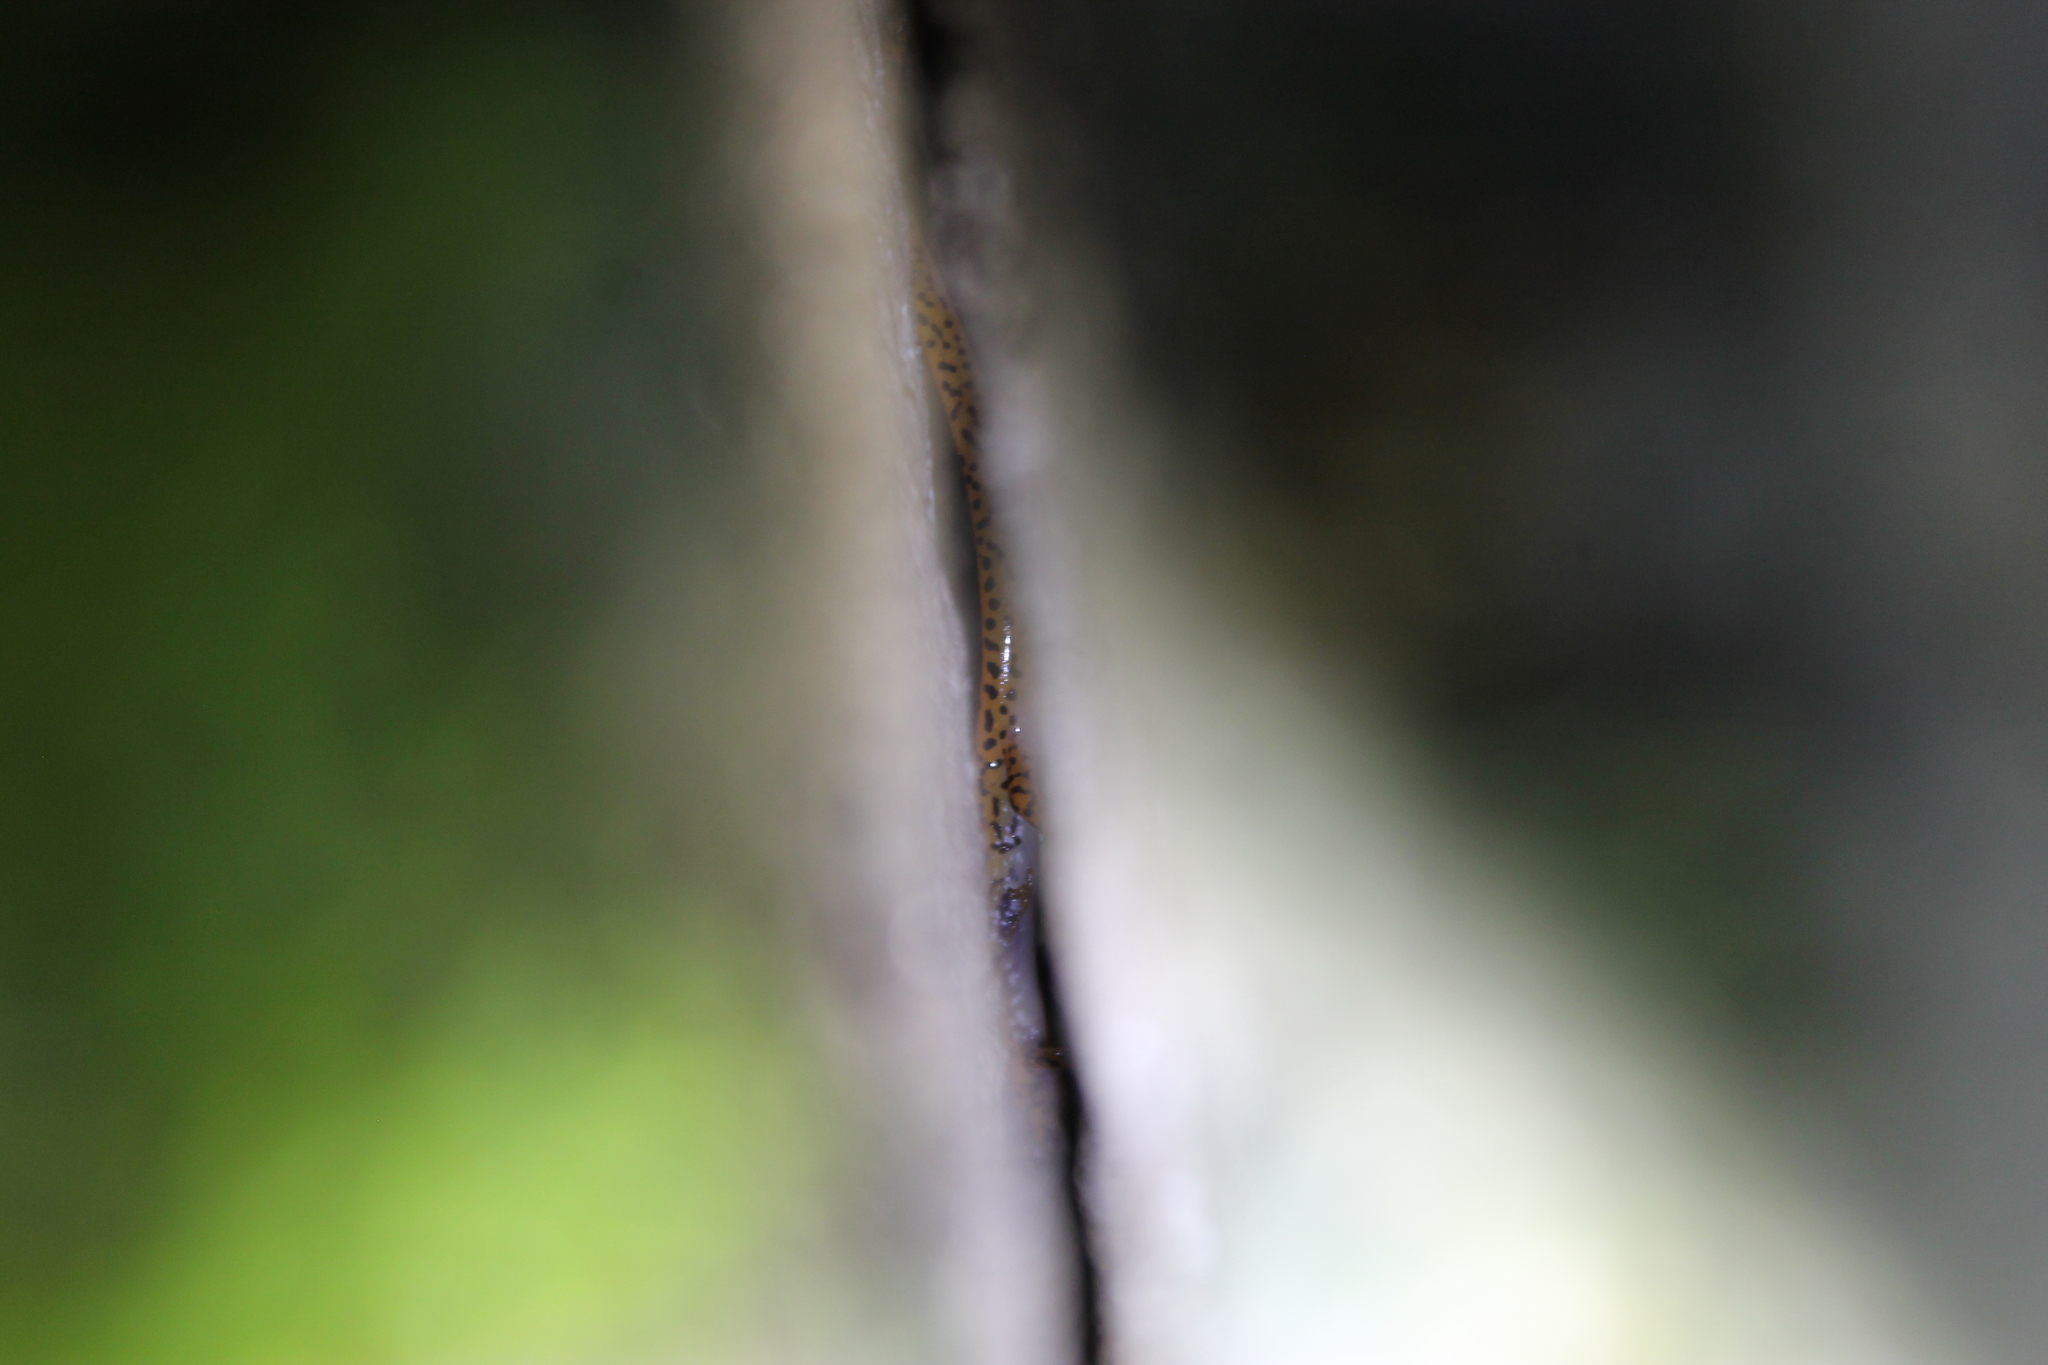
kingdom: Animalia
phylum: Chordata
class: Amphibia
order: Caudata
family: Plethodontidae
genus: Eurycea
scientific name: Eurycea lucifuga
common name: Cave salamander
